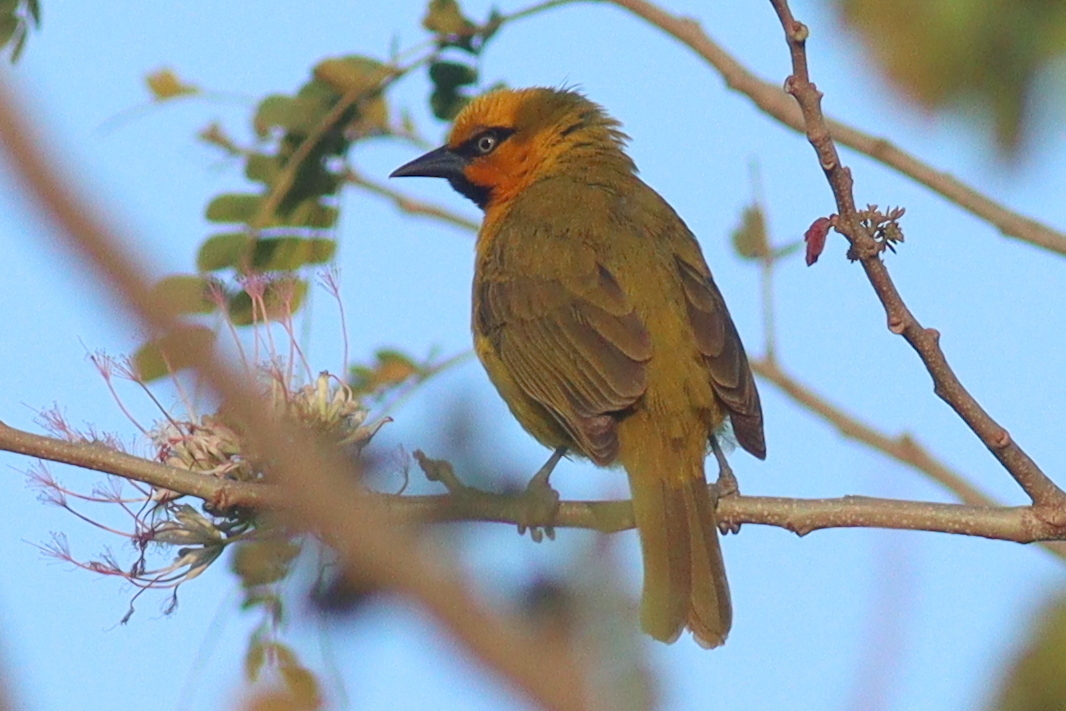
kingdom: Animalia
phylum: Chordata
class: Aves
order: Passeriformes
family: Ploceidae
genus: Ploceus
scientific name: Ploceus ocularis
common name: Spectacled weaver
